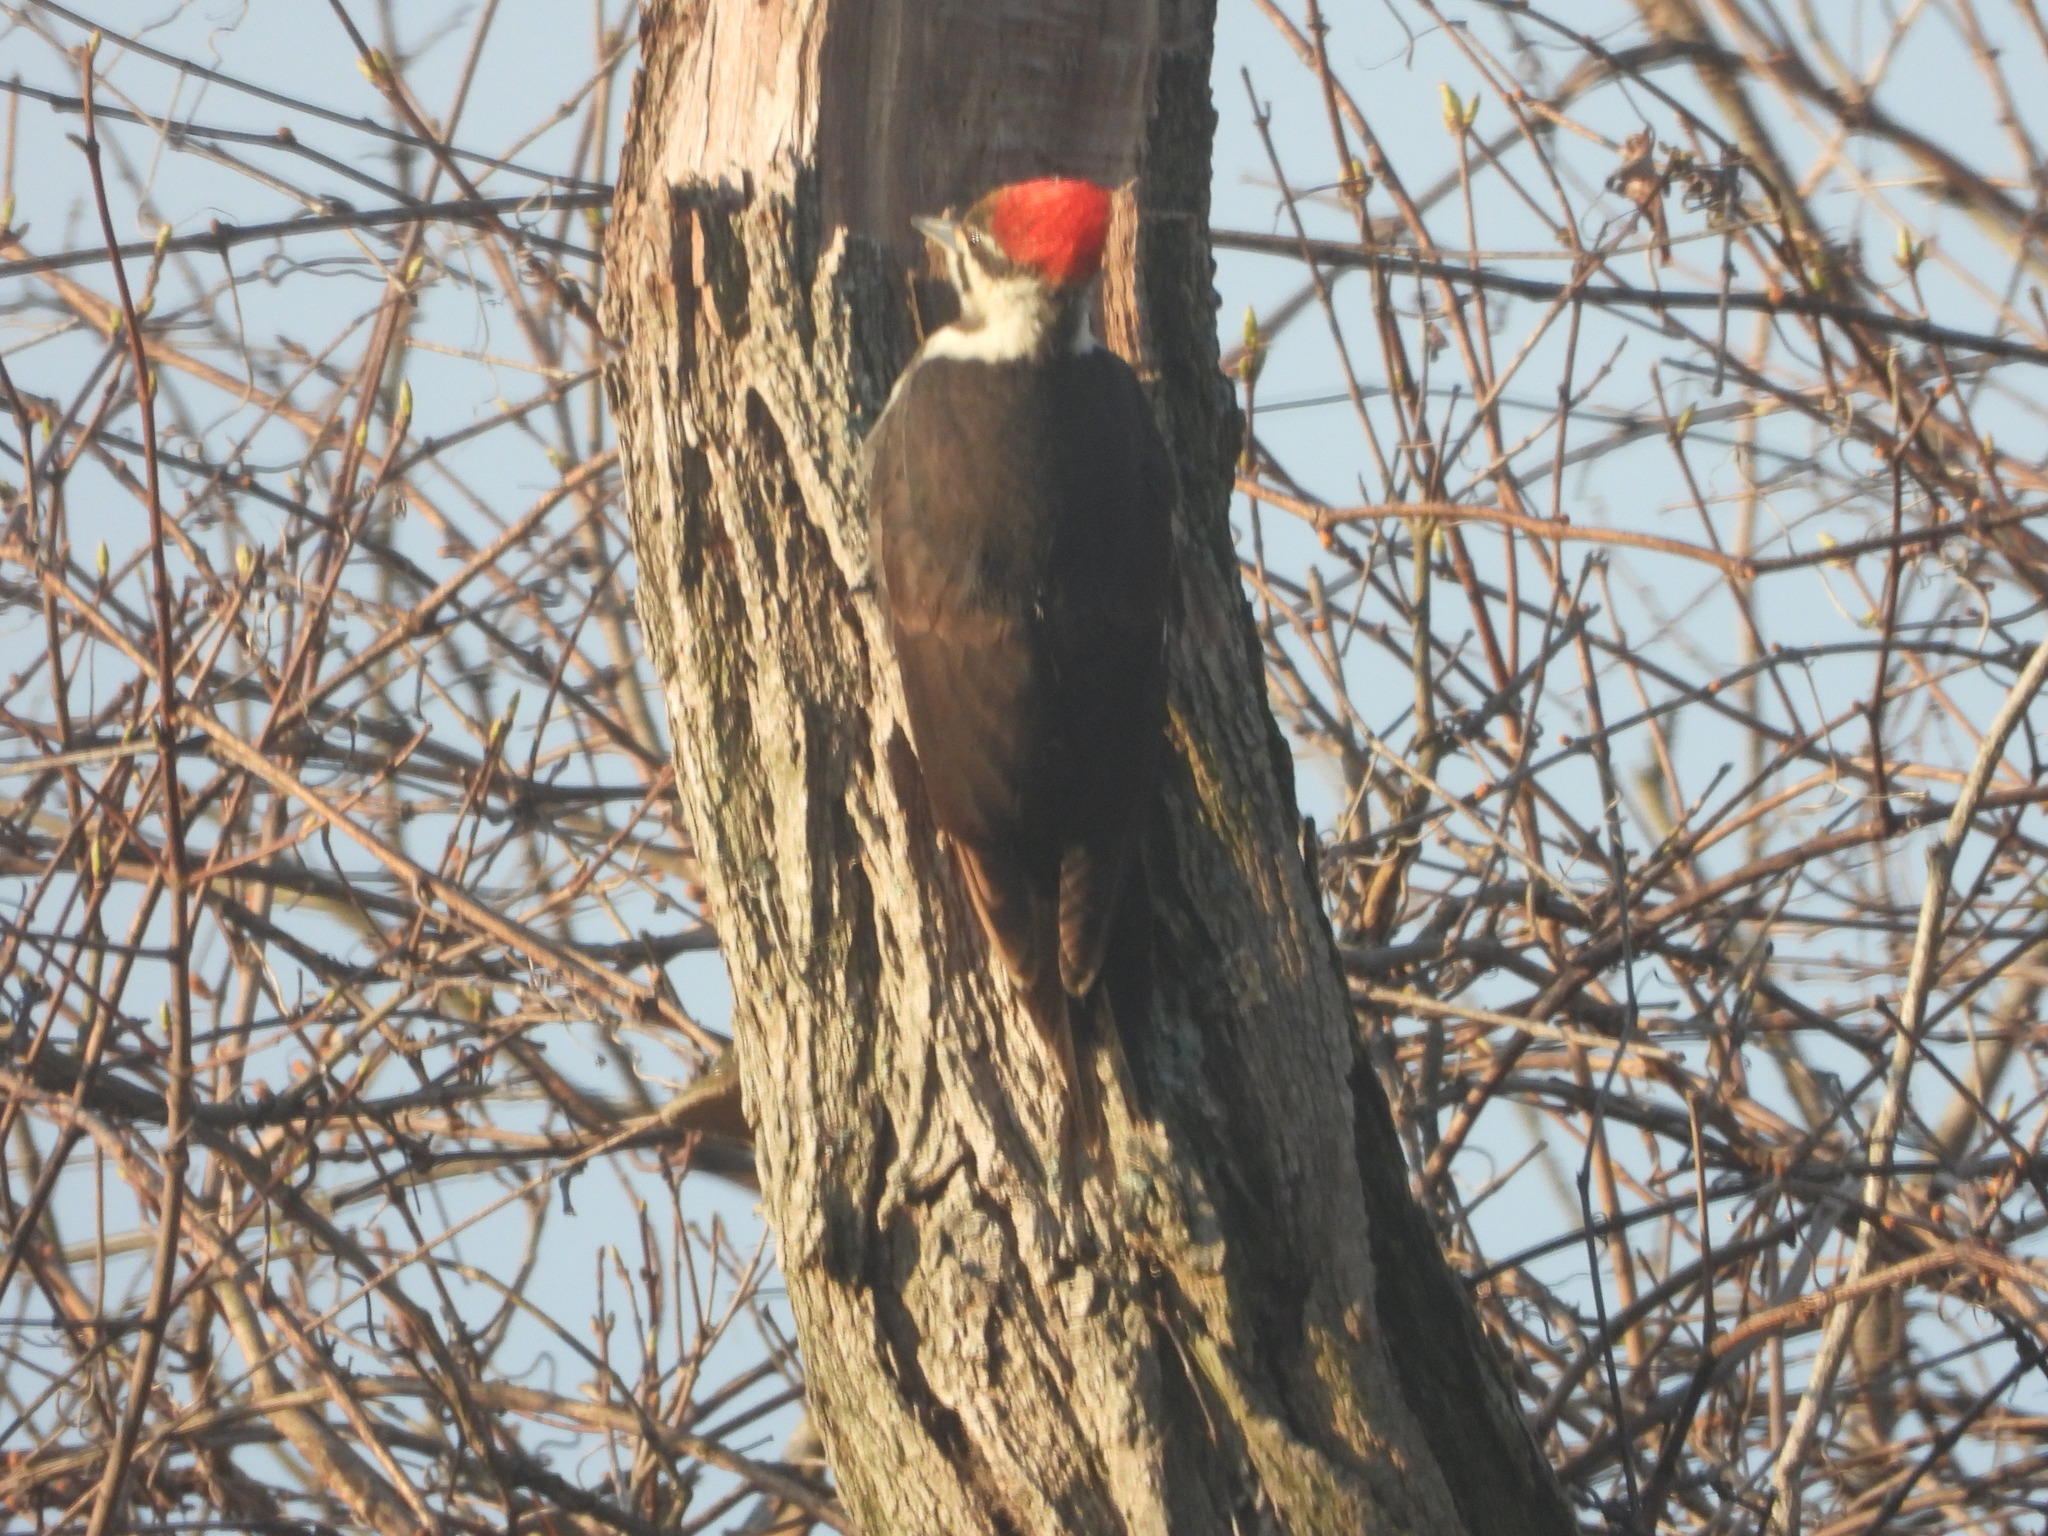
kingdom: Animalia
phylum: Chordata
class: Aves
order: Piciformes
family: Picidae
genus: Dryocopus
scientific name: Dryocopus pileatus
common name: Pileated woodpecker
